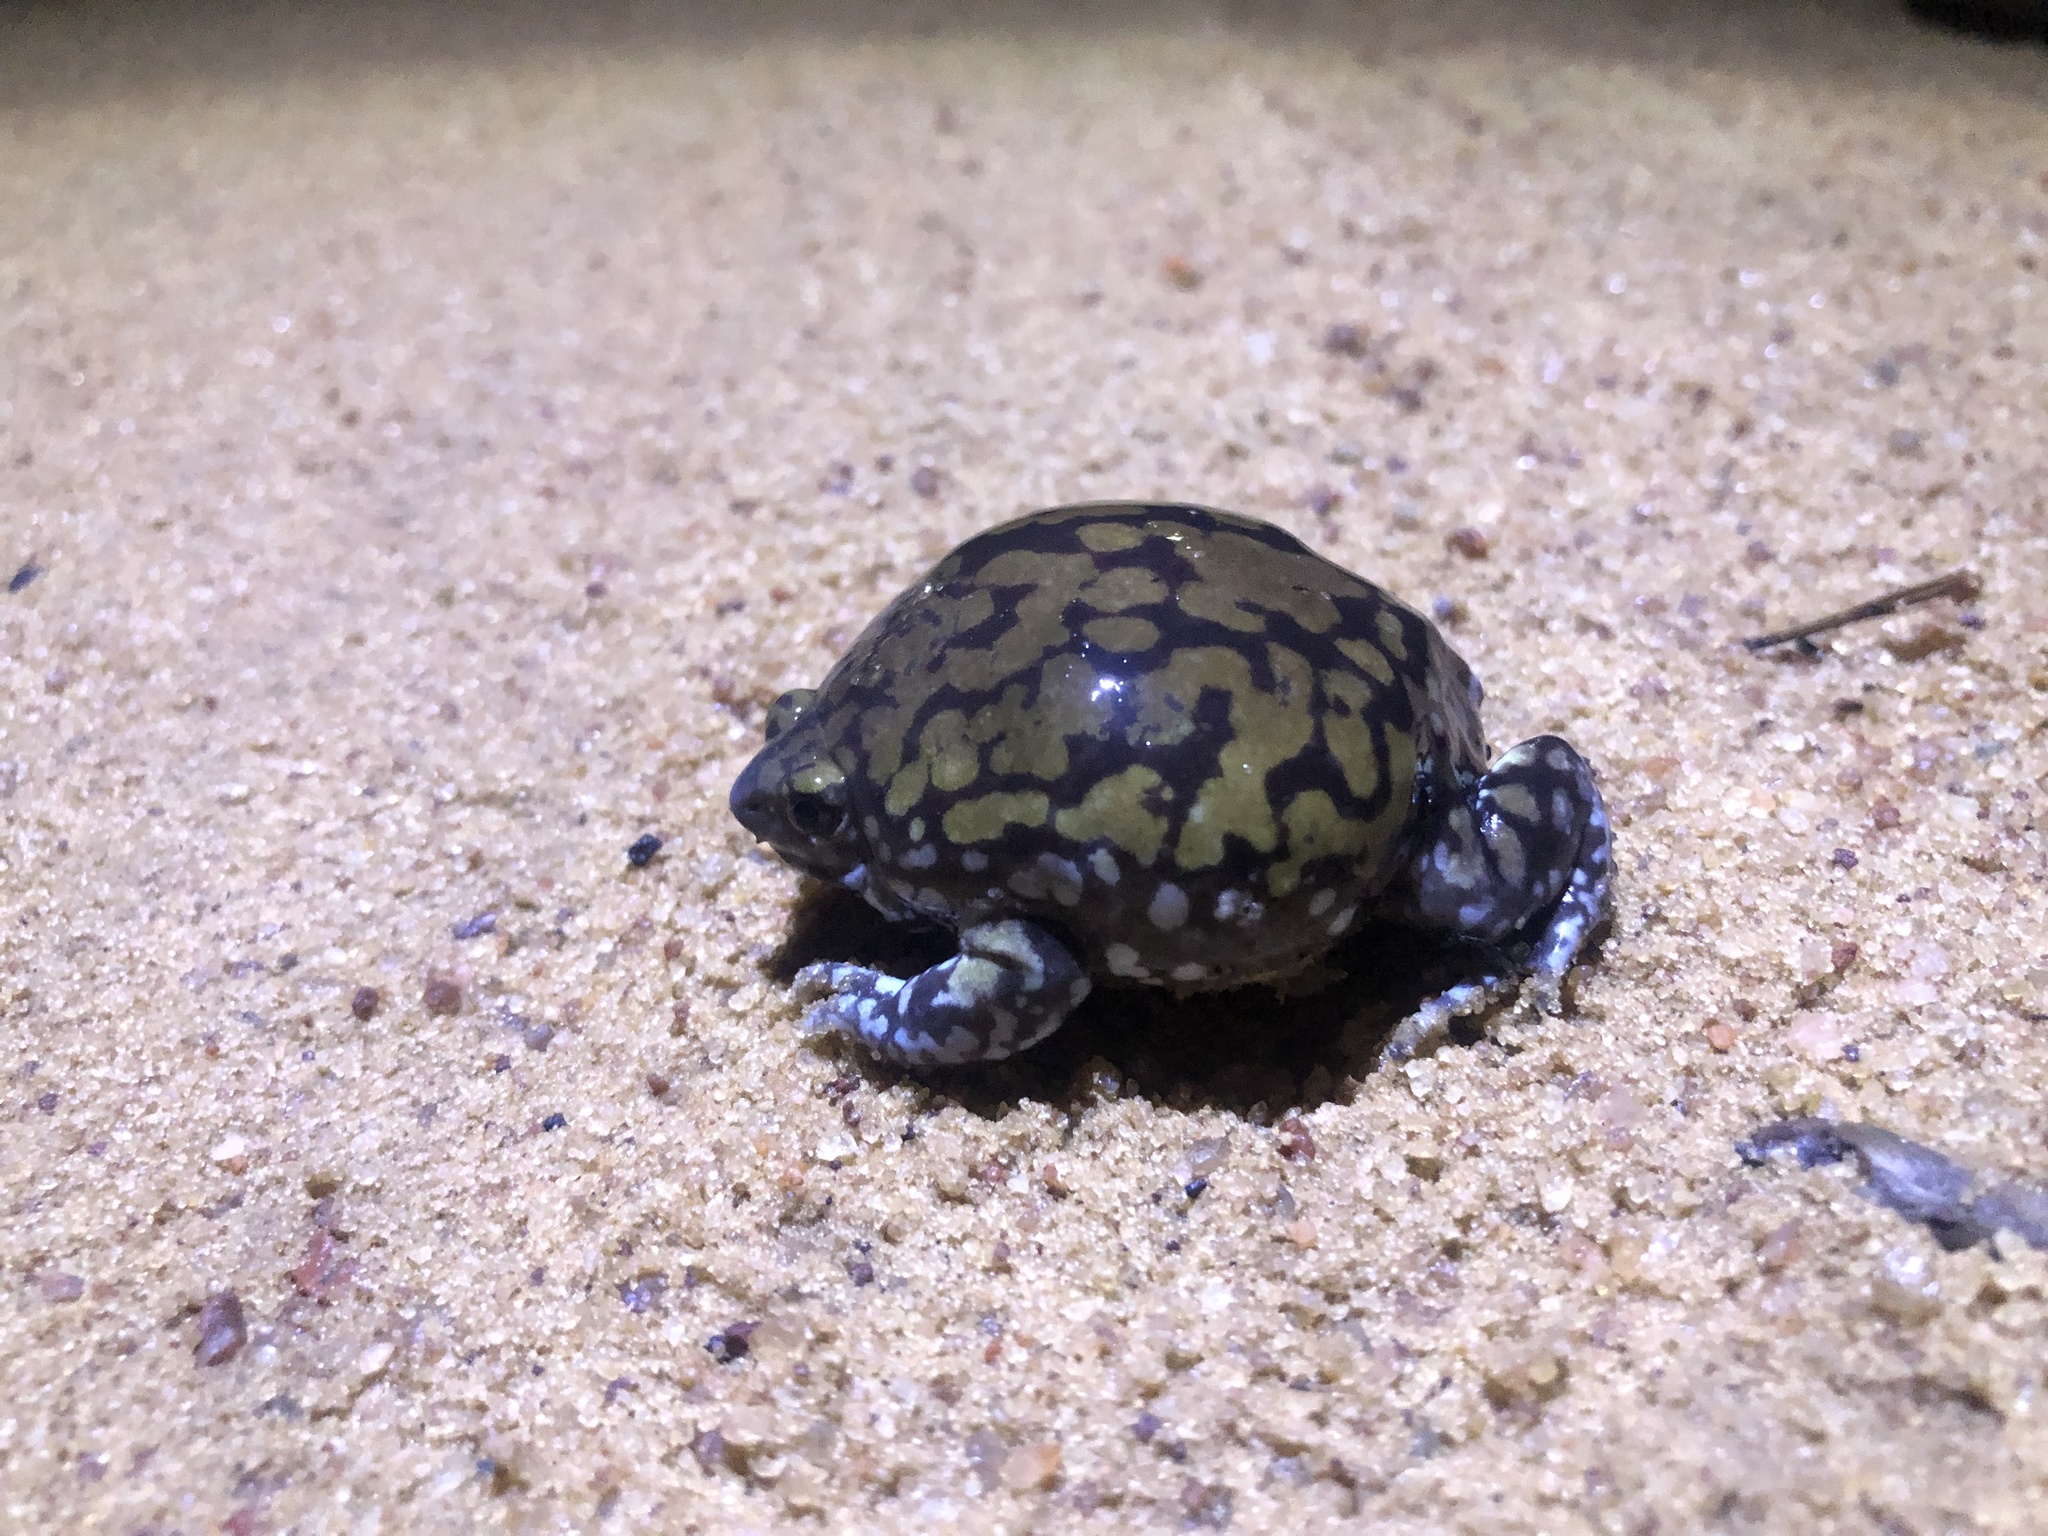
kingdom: Animalia
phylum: Chordata
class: Amphibia
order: Anura
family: Microhylidae
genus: Dermatonotus
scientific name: Dermatonotus muelleri
